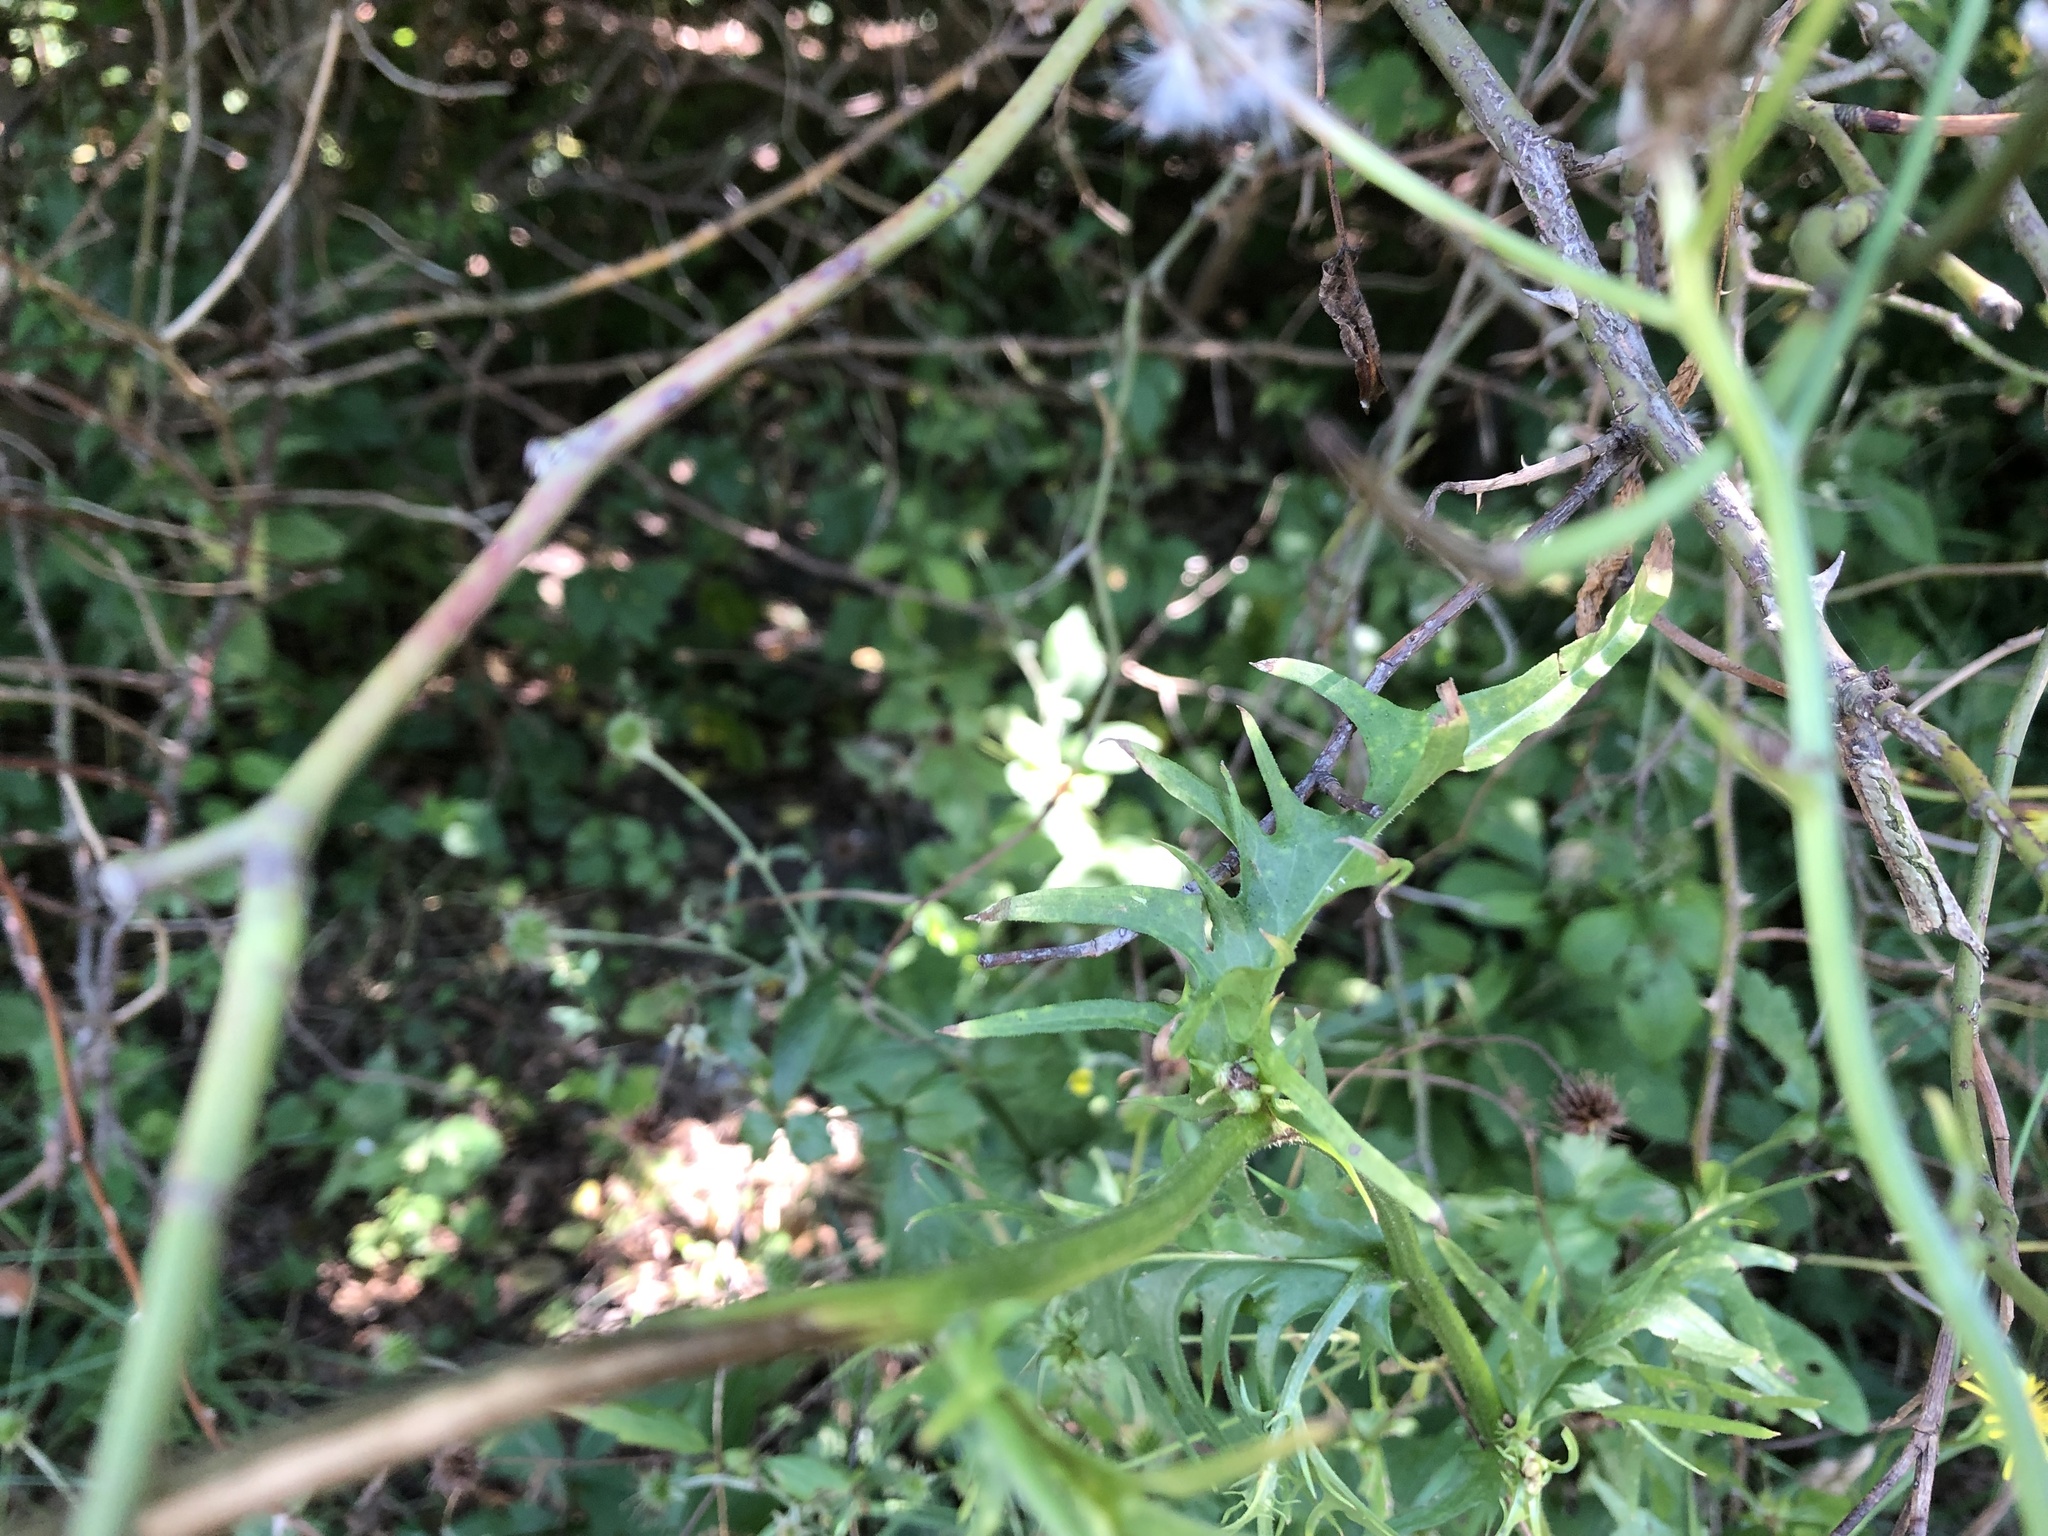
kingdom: Plantae
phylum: Tracheophyta
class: Magnoliopsida
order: Asterales
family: Asteraceae
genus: Crepis
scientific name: Crepis biennis
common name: Rough hawk's-beard
